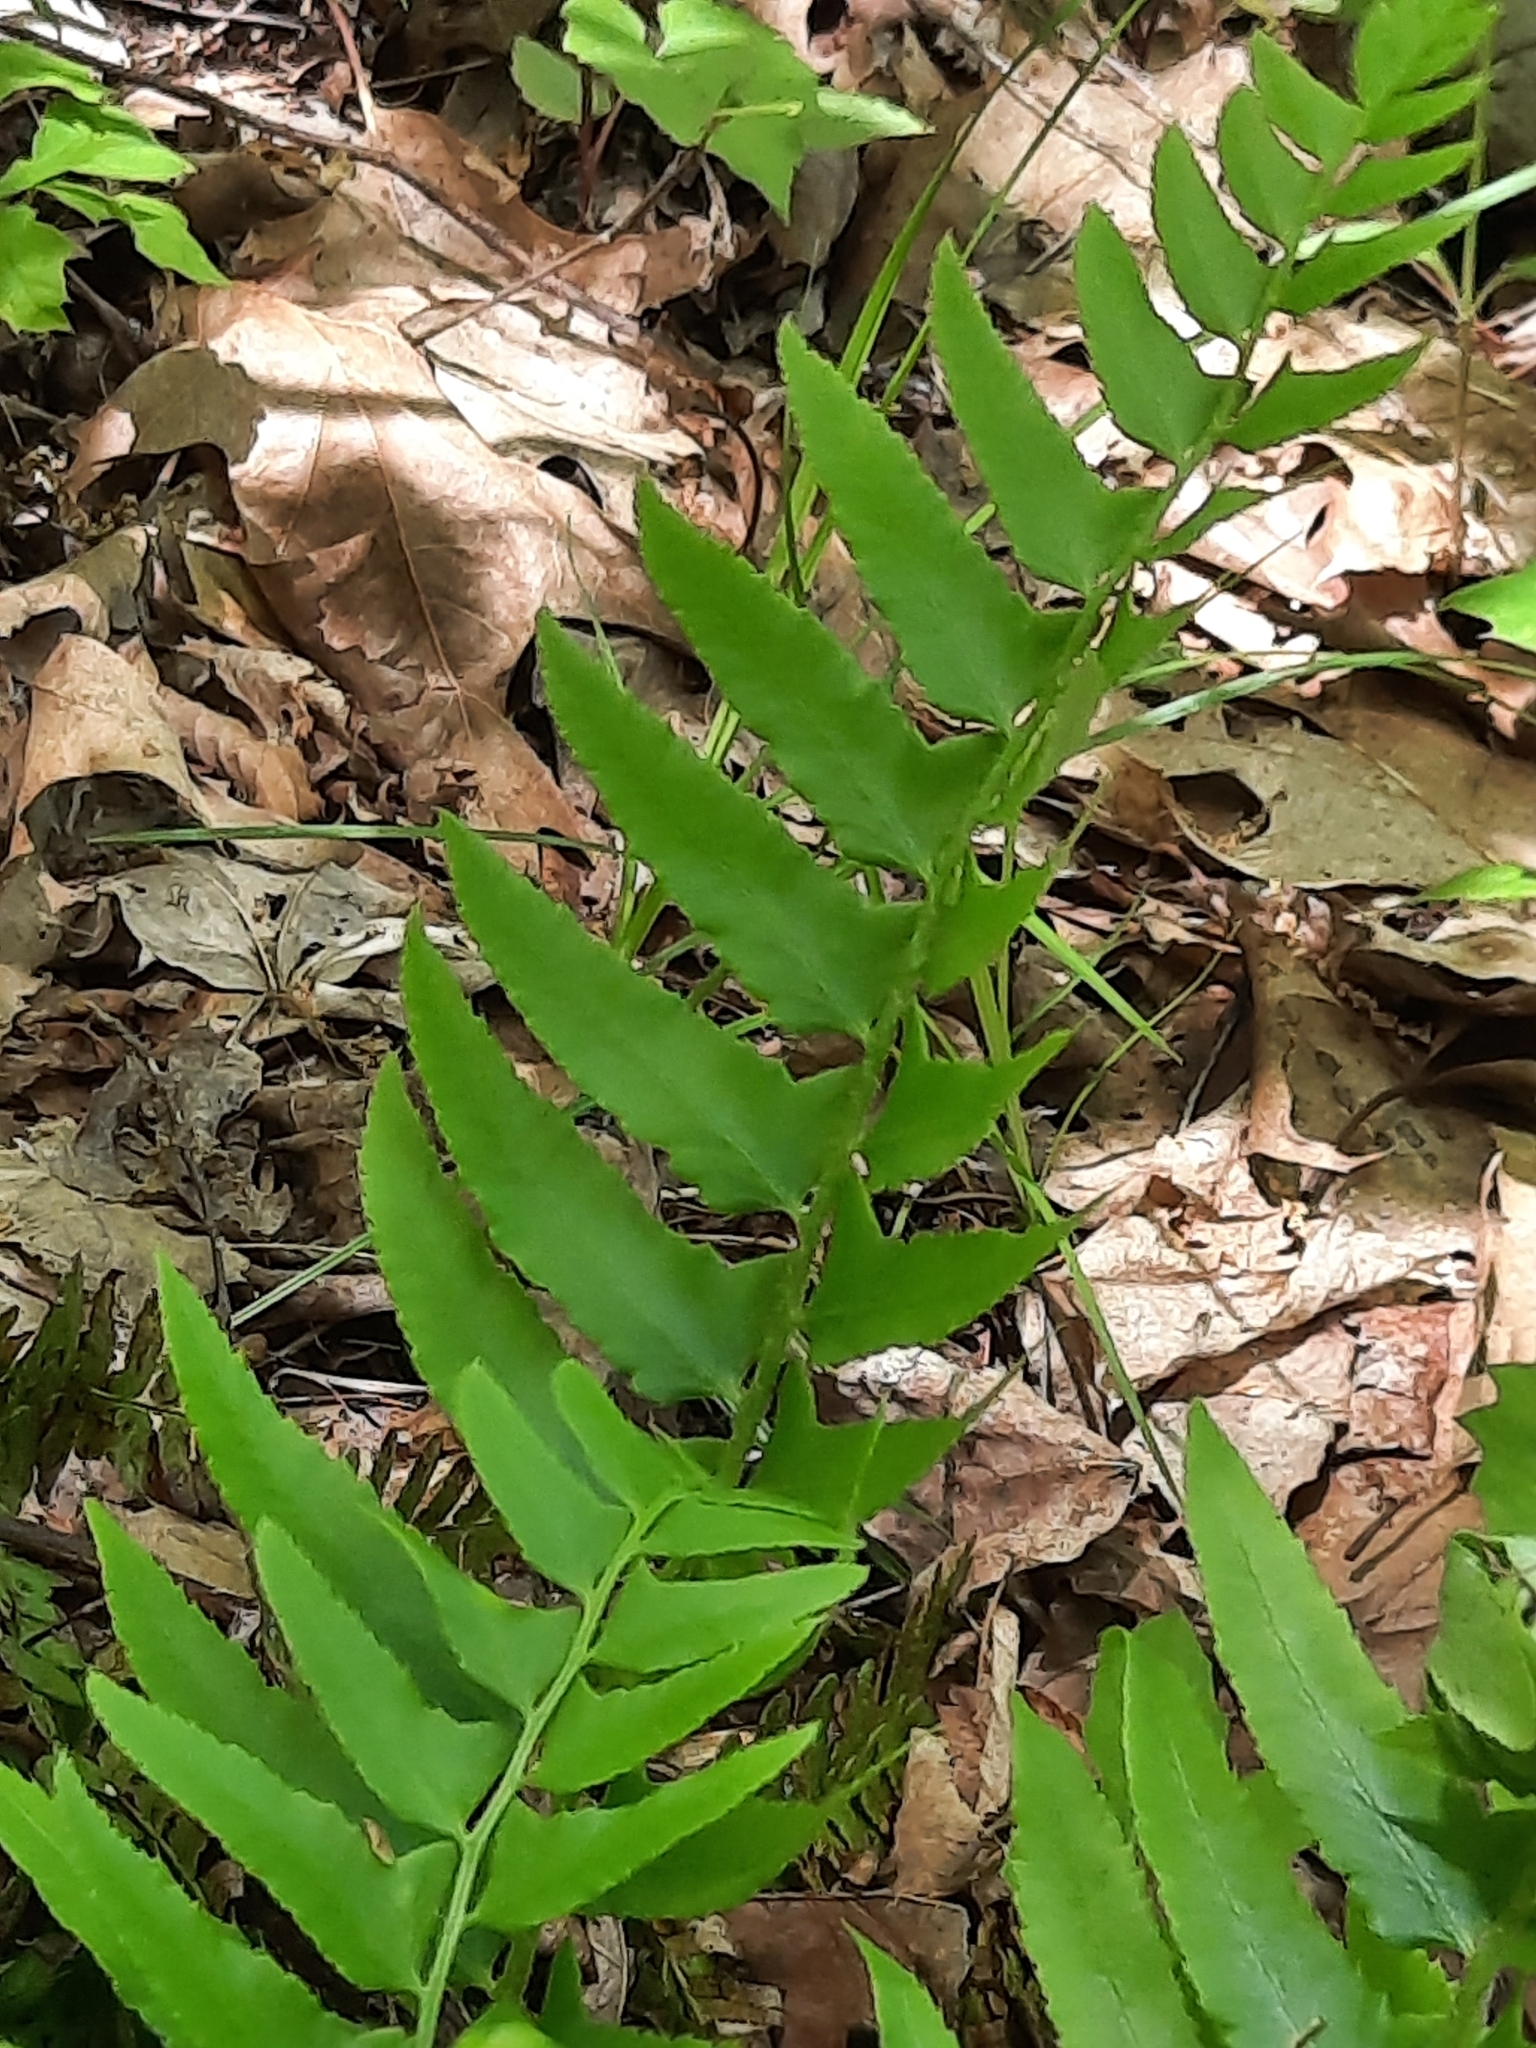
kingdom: Plantae
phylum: Tracheophyta
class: Polypodiopsida
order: Polypodiales
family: Dryopteridaceae
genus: Polystichum
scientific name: Polystichum acrostichoides
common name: Christmas fern
